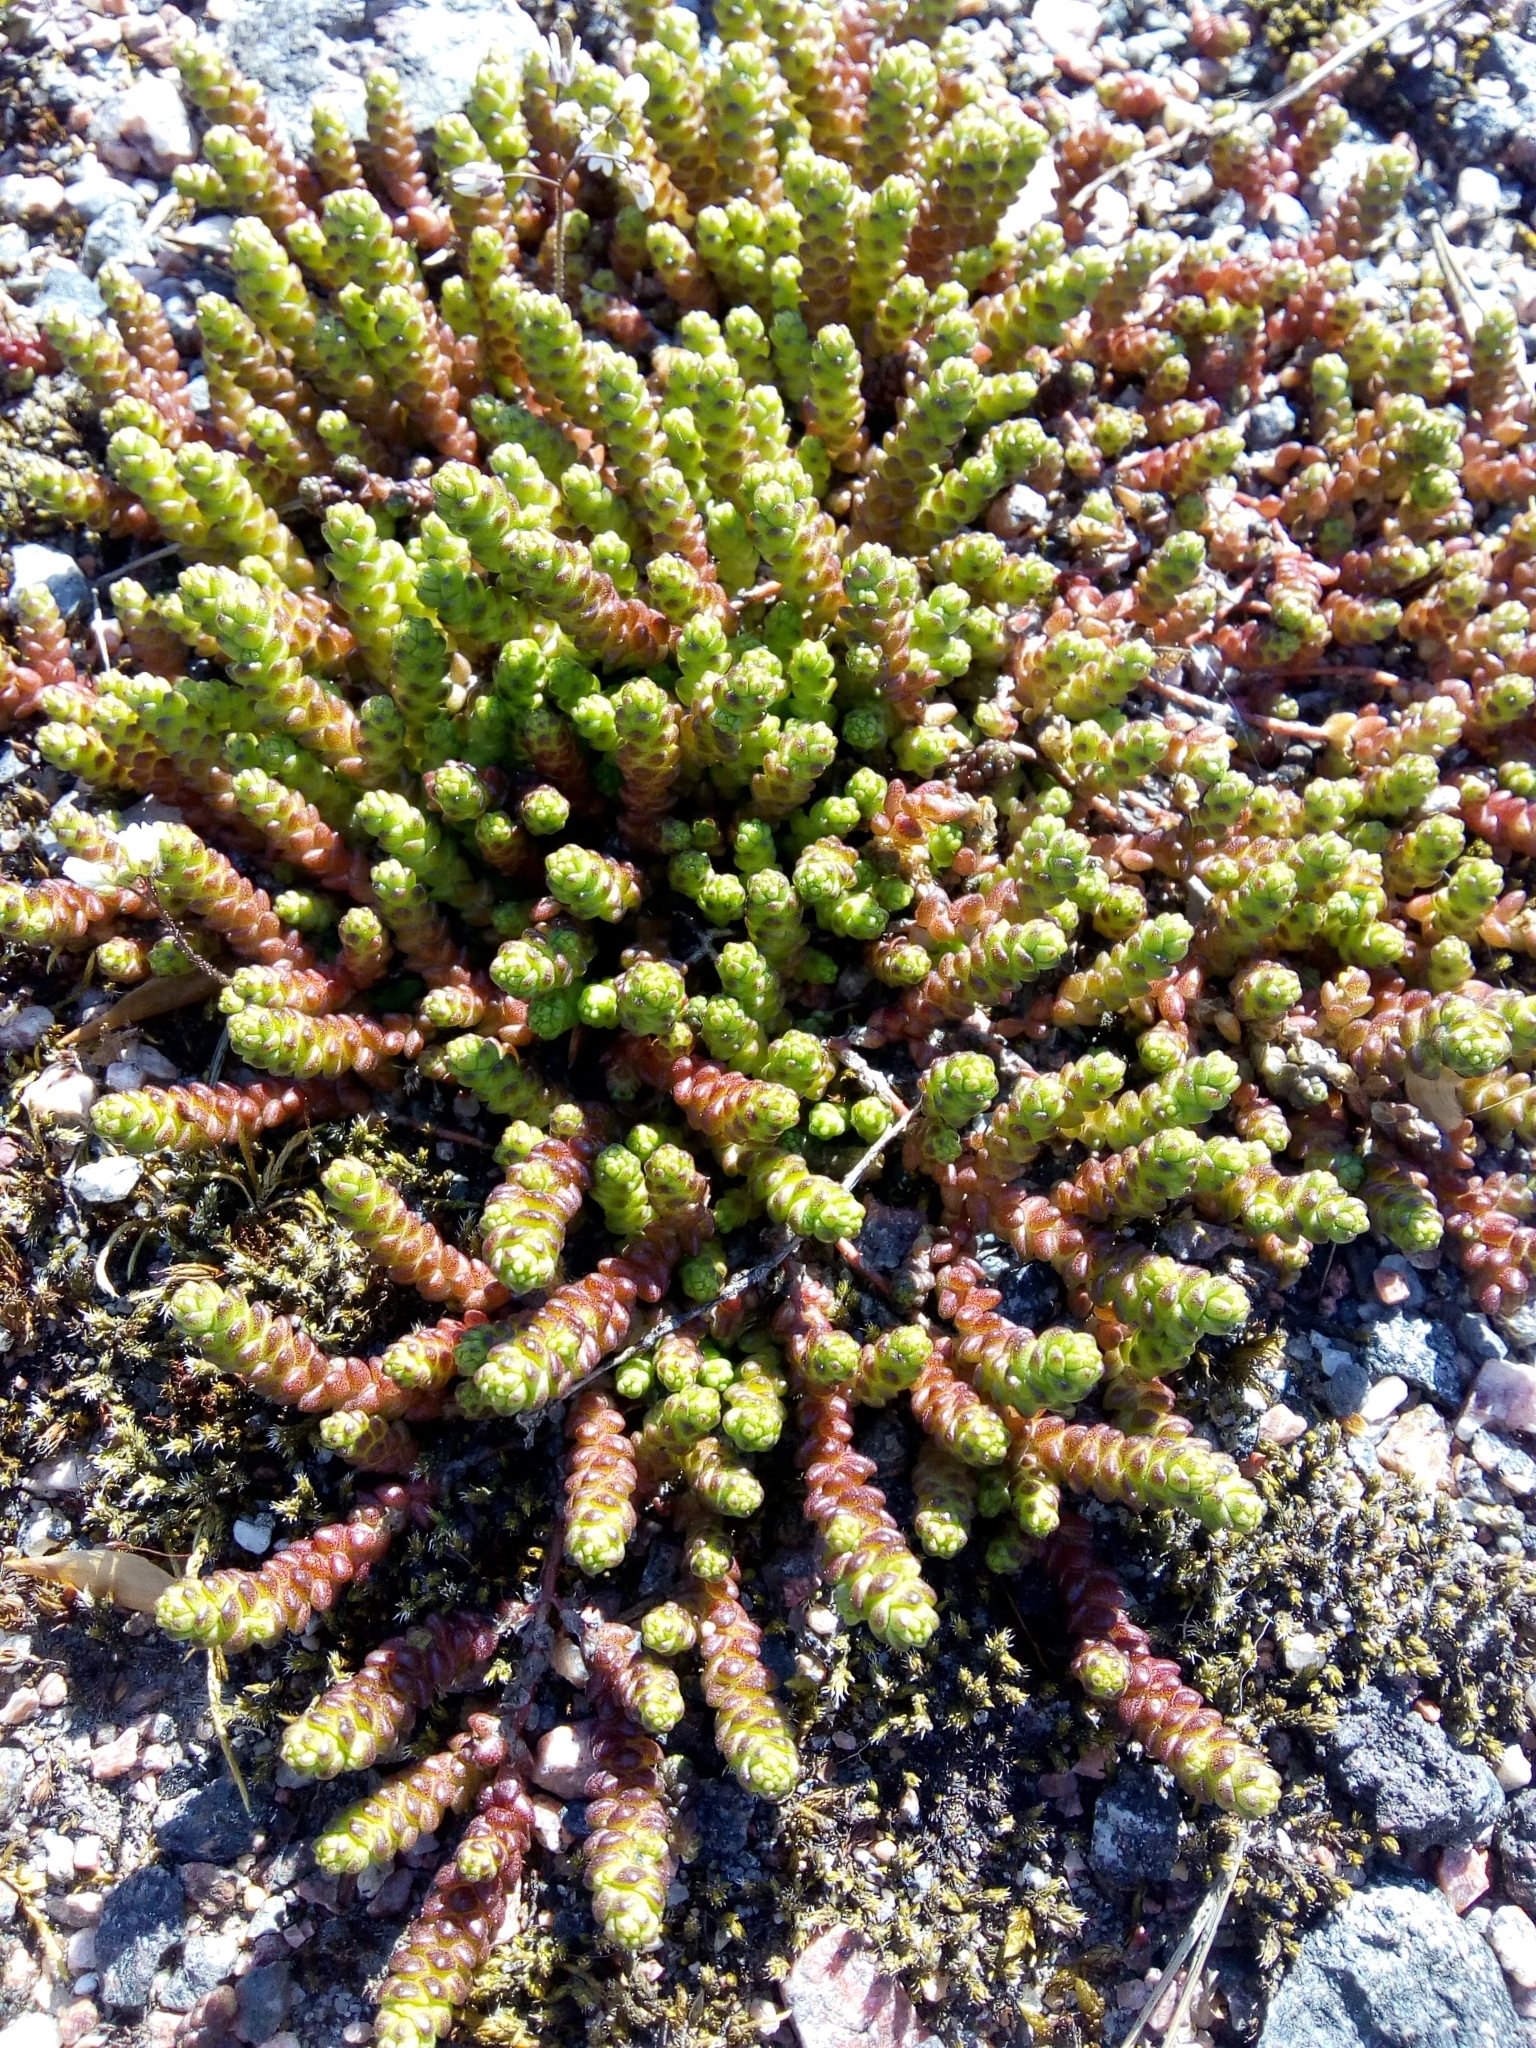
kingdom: Plantae
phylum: Tracheophyta
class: Magnoliopsida
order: Saxifragales
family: Crassulaceae
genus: Sedum
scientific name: Sedum acre
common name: Biting stonecrop
